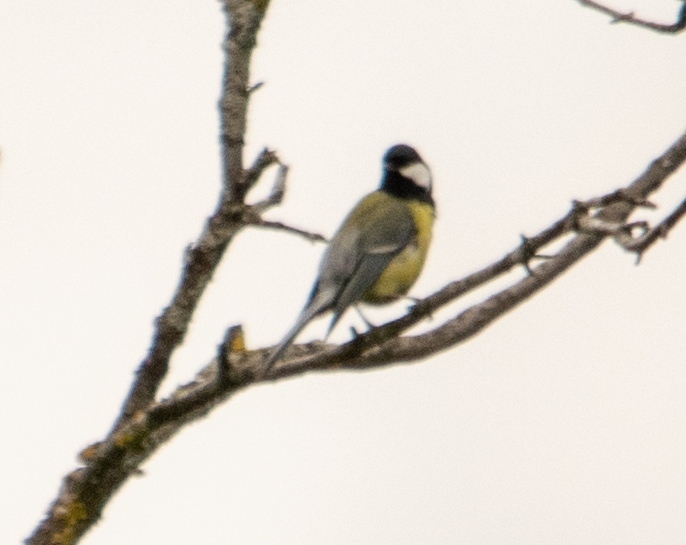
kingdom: Animalia
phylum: Chordata
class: Aves
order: Passeriformes
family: Paridae
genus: Parus
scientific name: Parus major
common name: Great tit
